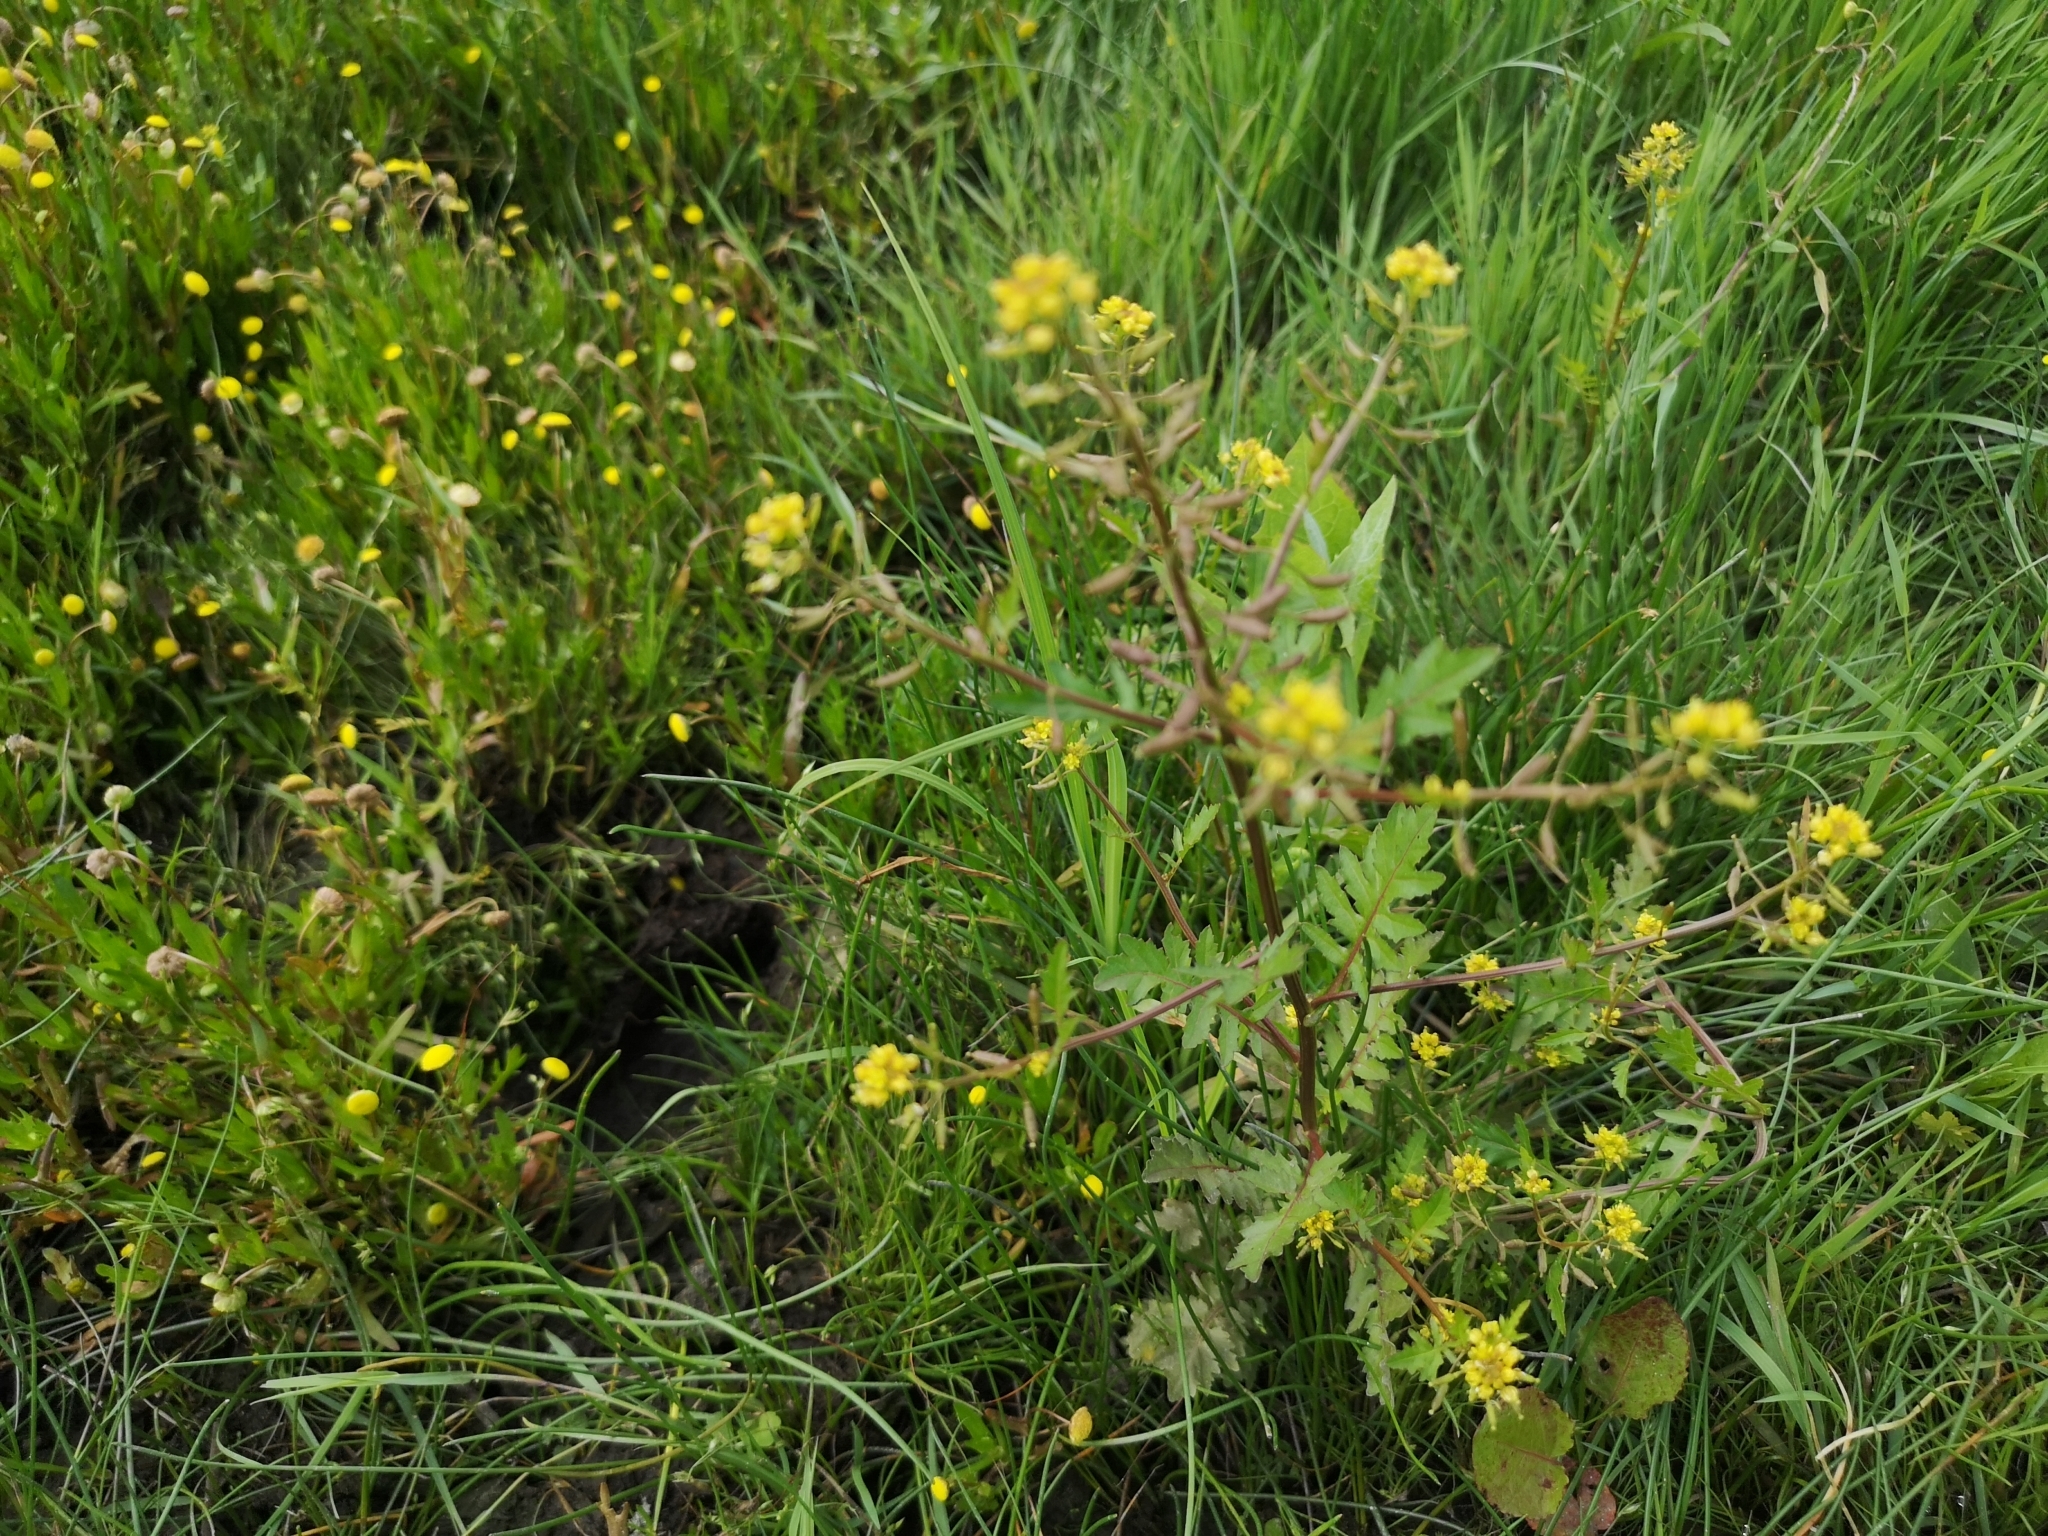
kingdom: Plantae
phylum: Tracheophyta
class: Magnoliopsida
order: Brassicales
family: Brassicaceae
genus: Rorippa
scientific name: Rorippa palustris
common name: Marsh yellow-cress
